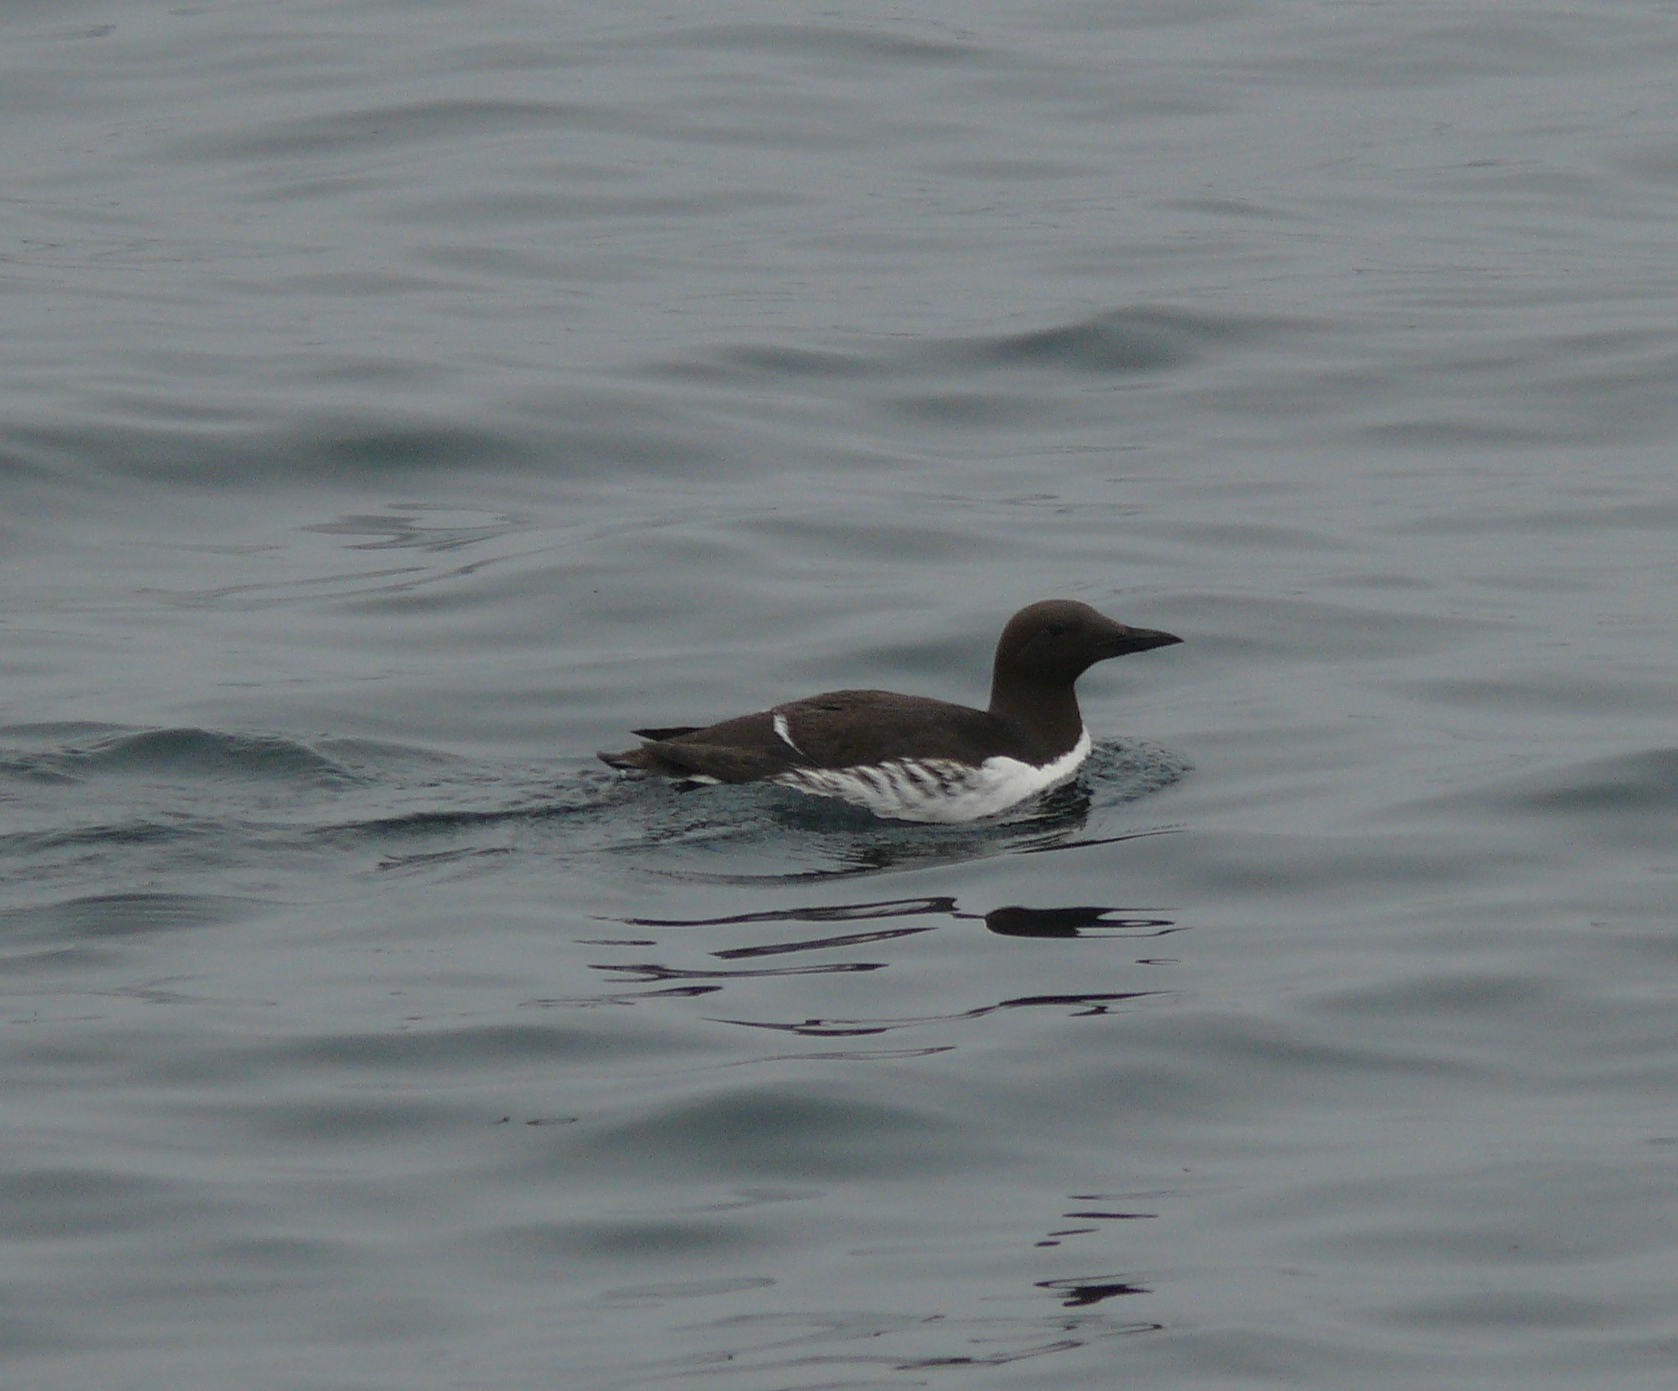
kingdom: Animalia
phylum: Chordata
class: Aves
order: Charadriiformes
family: Alcidae
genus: Uria
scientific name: Uria aalge
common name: Common murre
